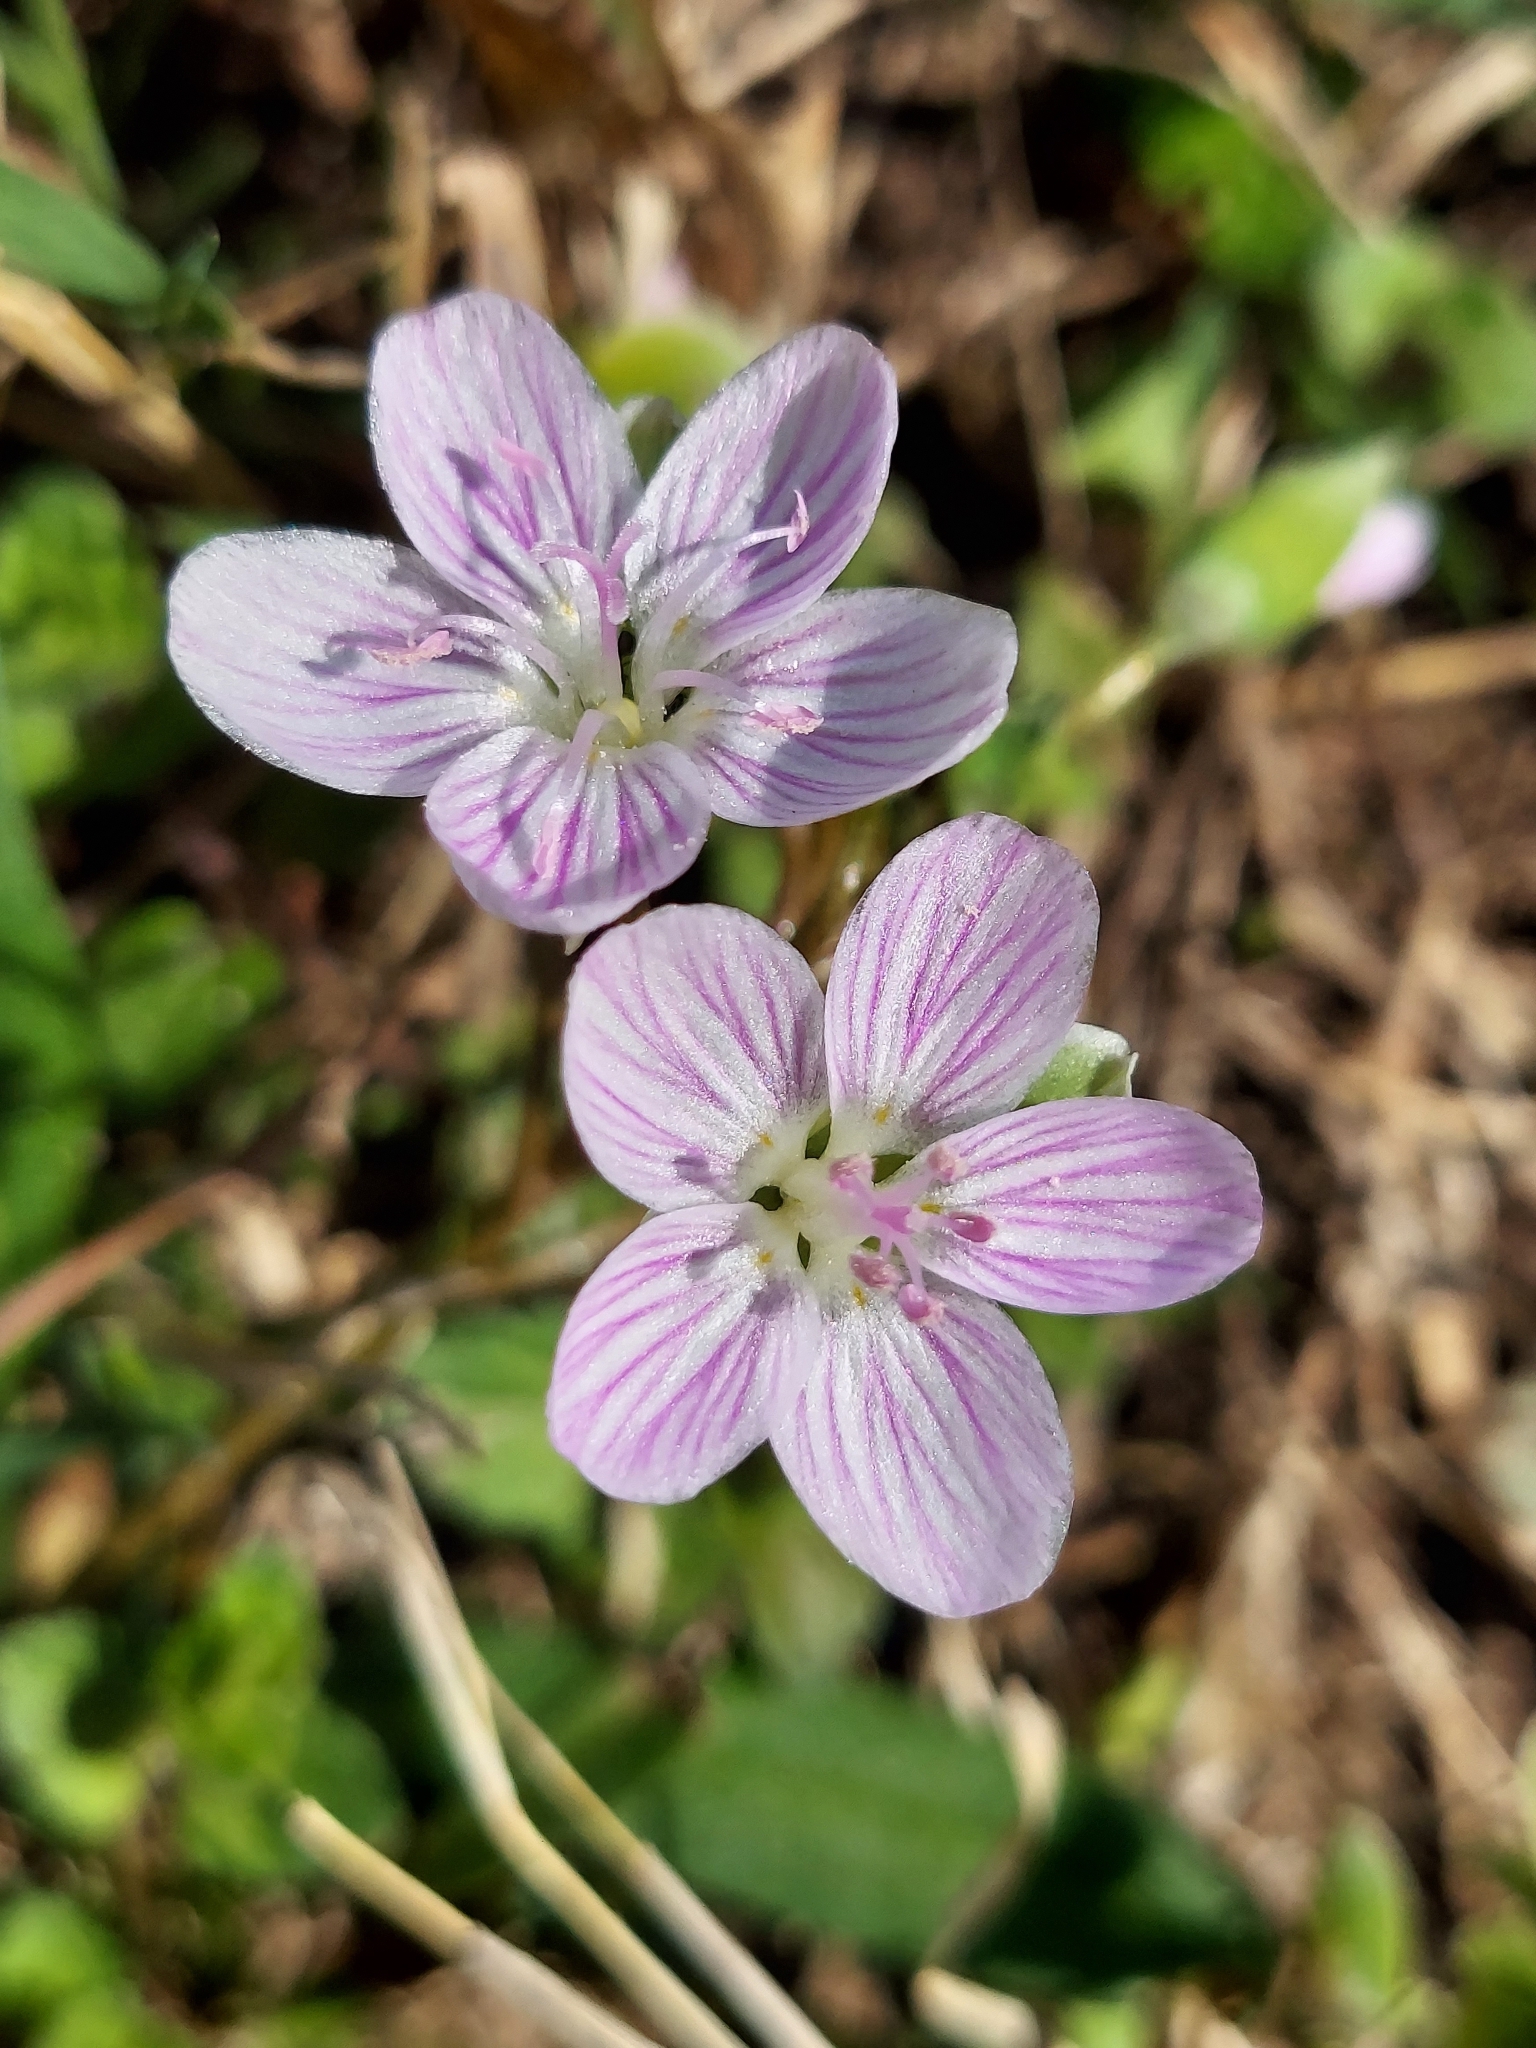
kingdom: Plantae
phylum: Tracheophyta
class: Magnoliopsida
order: Caryophyllales
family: Montiaceae
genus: Claytonia
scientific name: Claytonia virginica
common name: Virginia springbeauty
